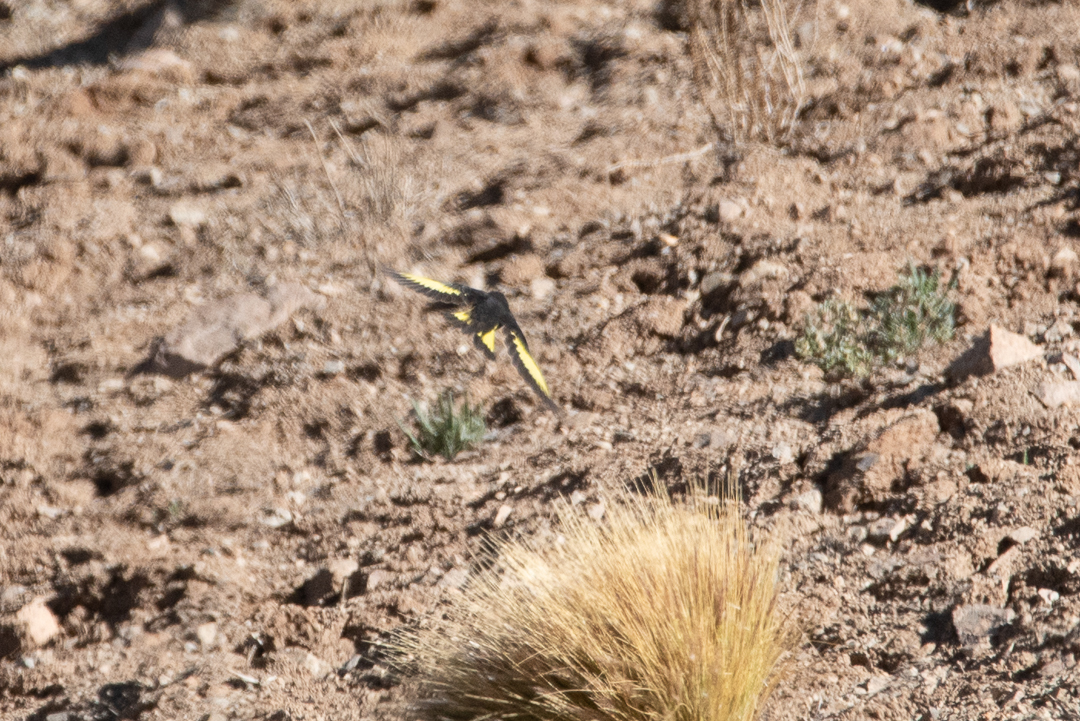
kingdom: Animalia
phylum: Chordata
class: Aves
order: Passeriformes
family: Fringillidae
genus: Spinus
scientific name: Spinus atratus
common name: Black siskin
